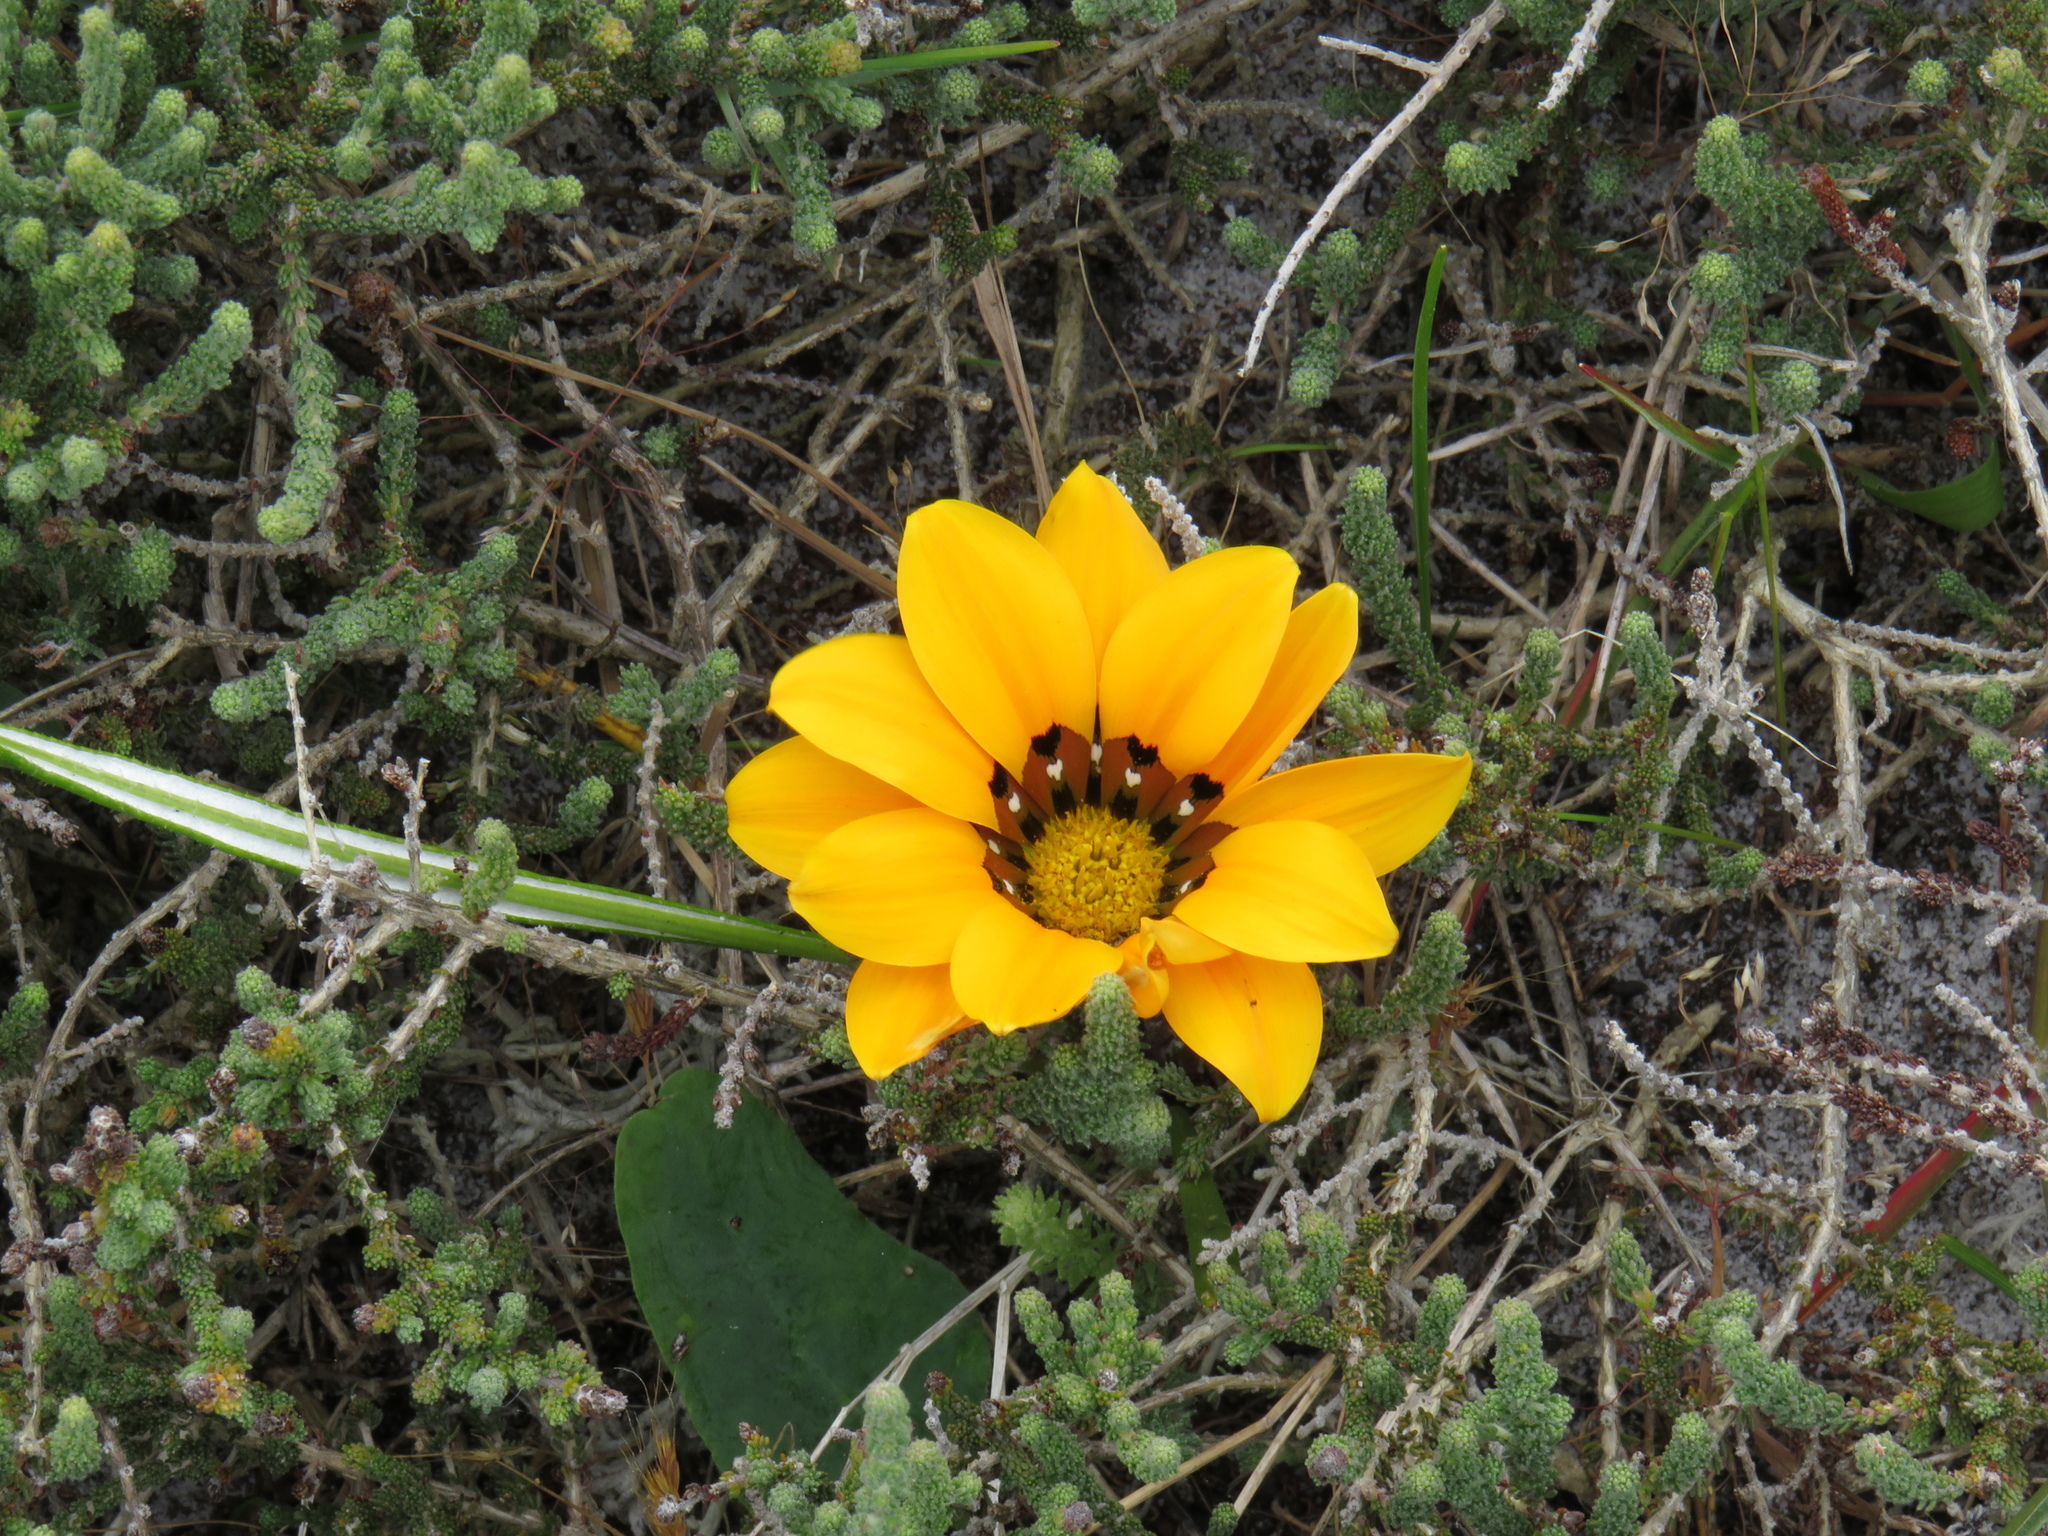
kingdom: Plantae
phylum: Tracheophyta
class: Magnoliopsida
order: Asterales
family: Asteraceae
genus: Gazania
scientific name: Gazania pectinata
